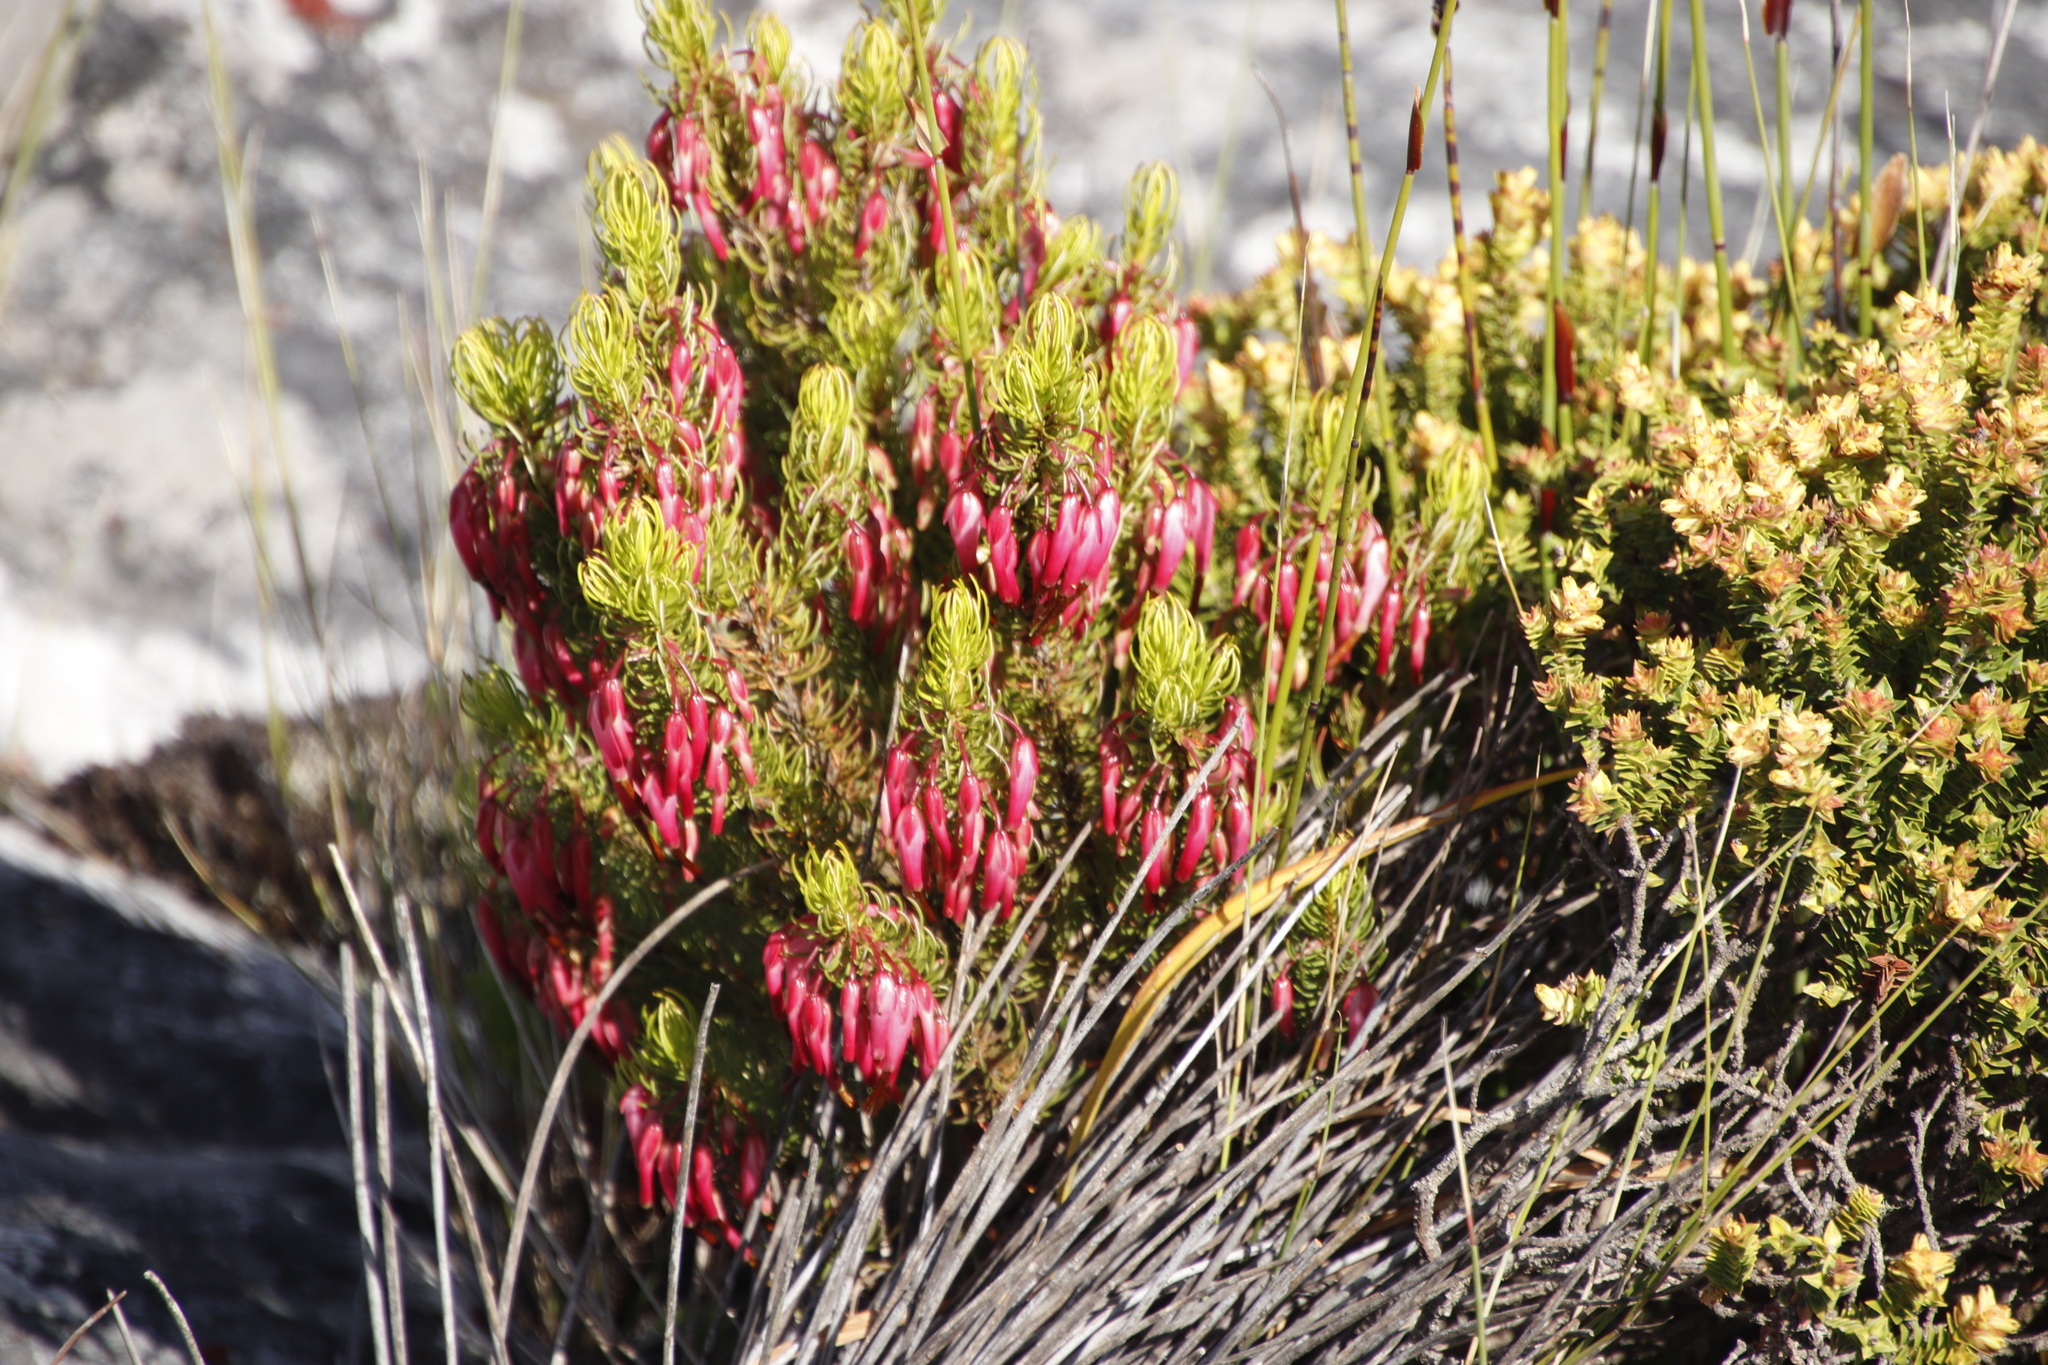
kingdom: Plantae
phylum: Tracheophyta
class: Magnoliopsida
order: Ericales
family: Ericaceae
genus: Erica
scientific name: Erica plukenetii
